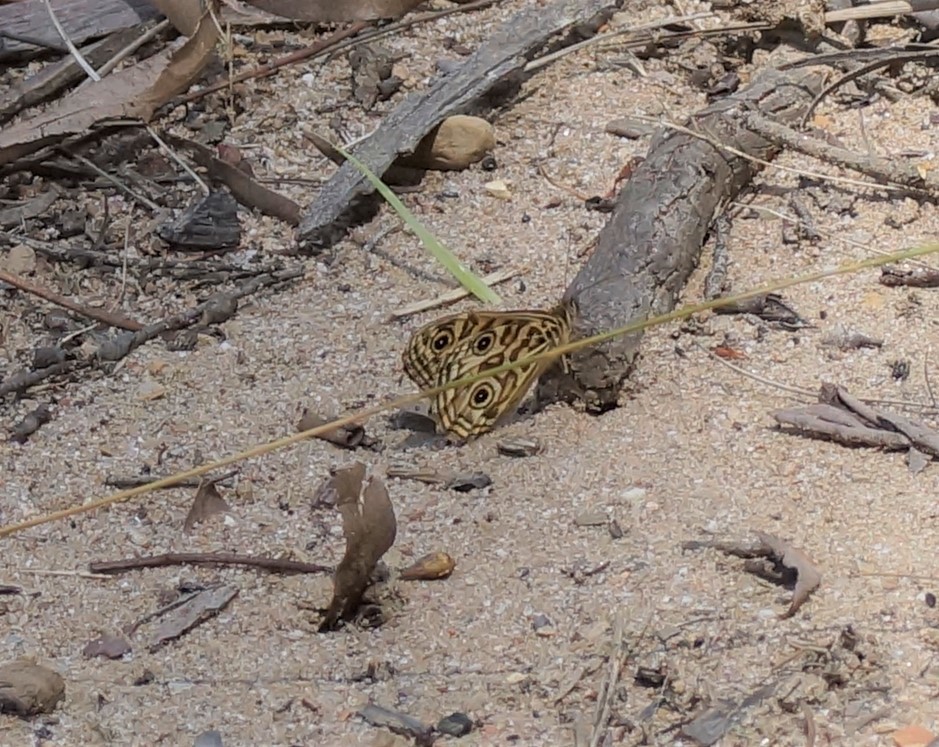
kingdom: Animalia
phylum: Arthropoda
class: Insecta
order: Lepidoptera
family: Nymphalidae
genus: Geitoneura
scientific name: Geitoneura acantha
